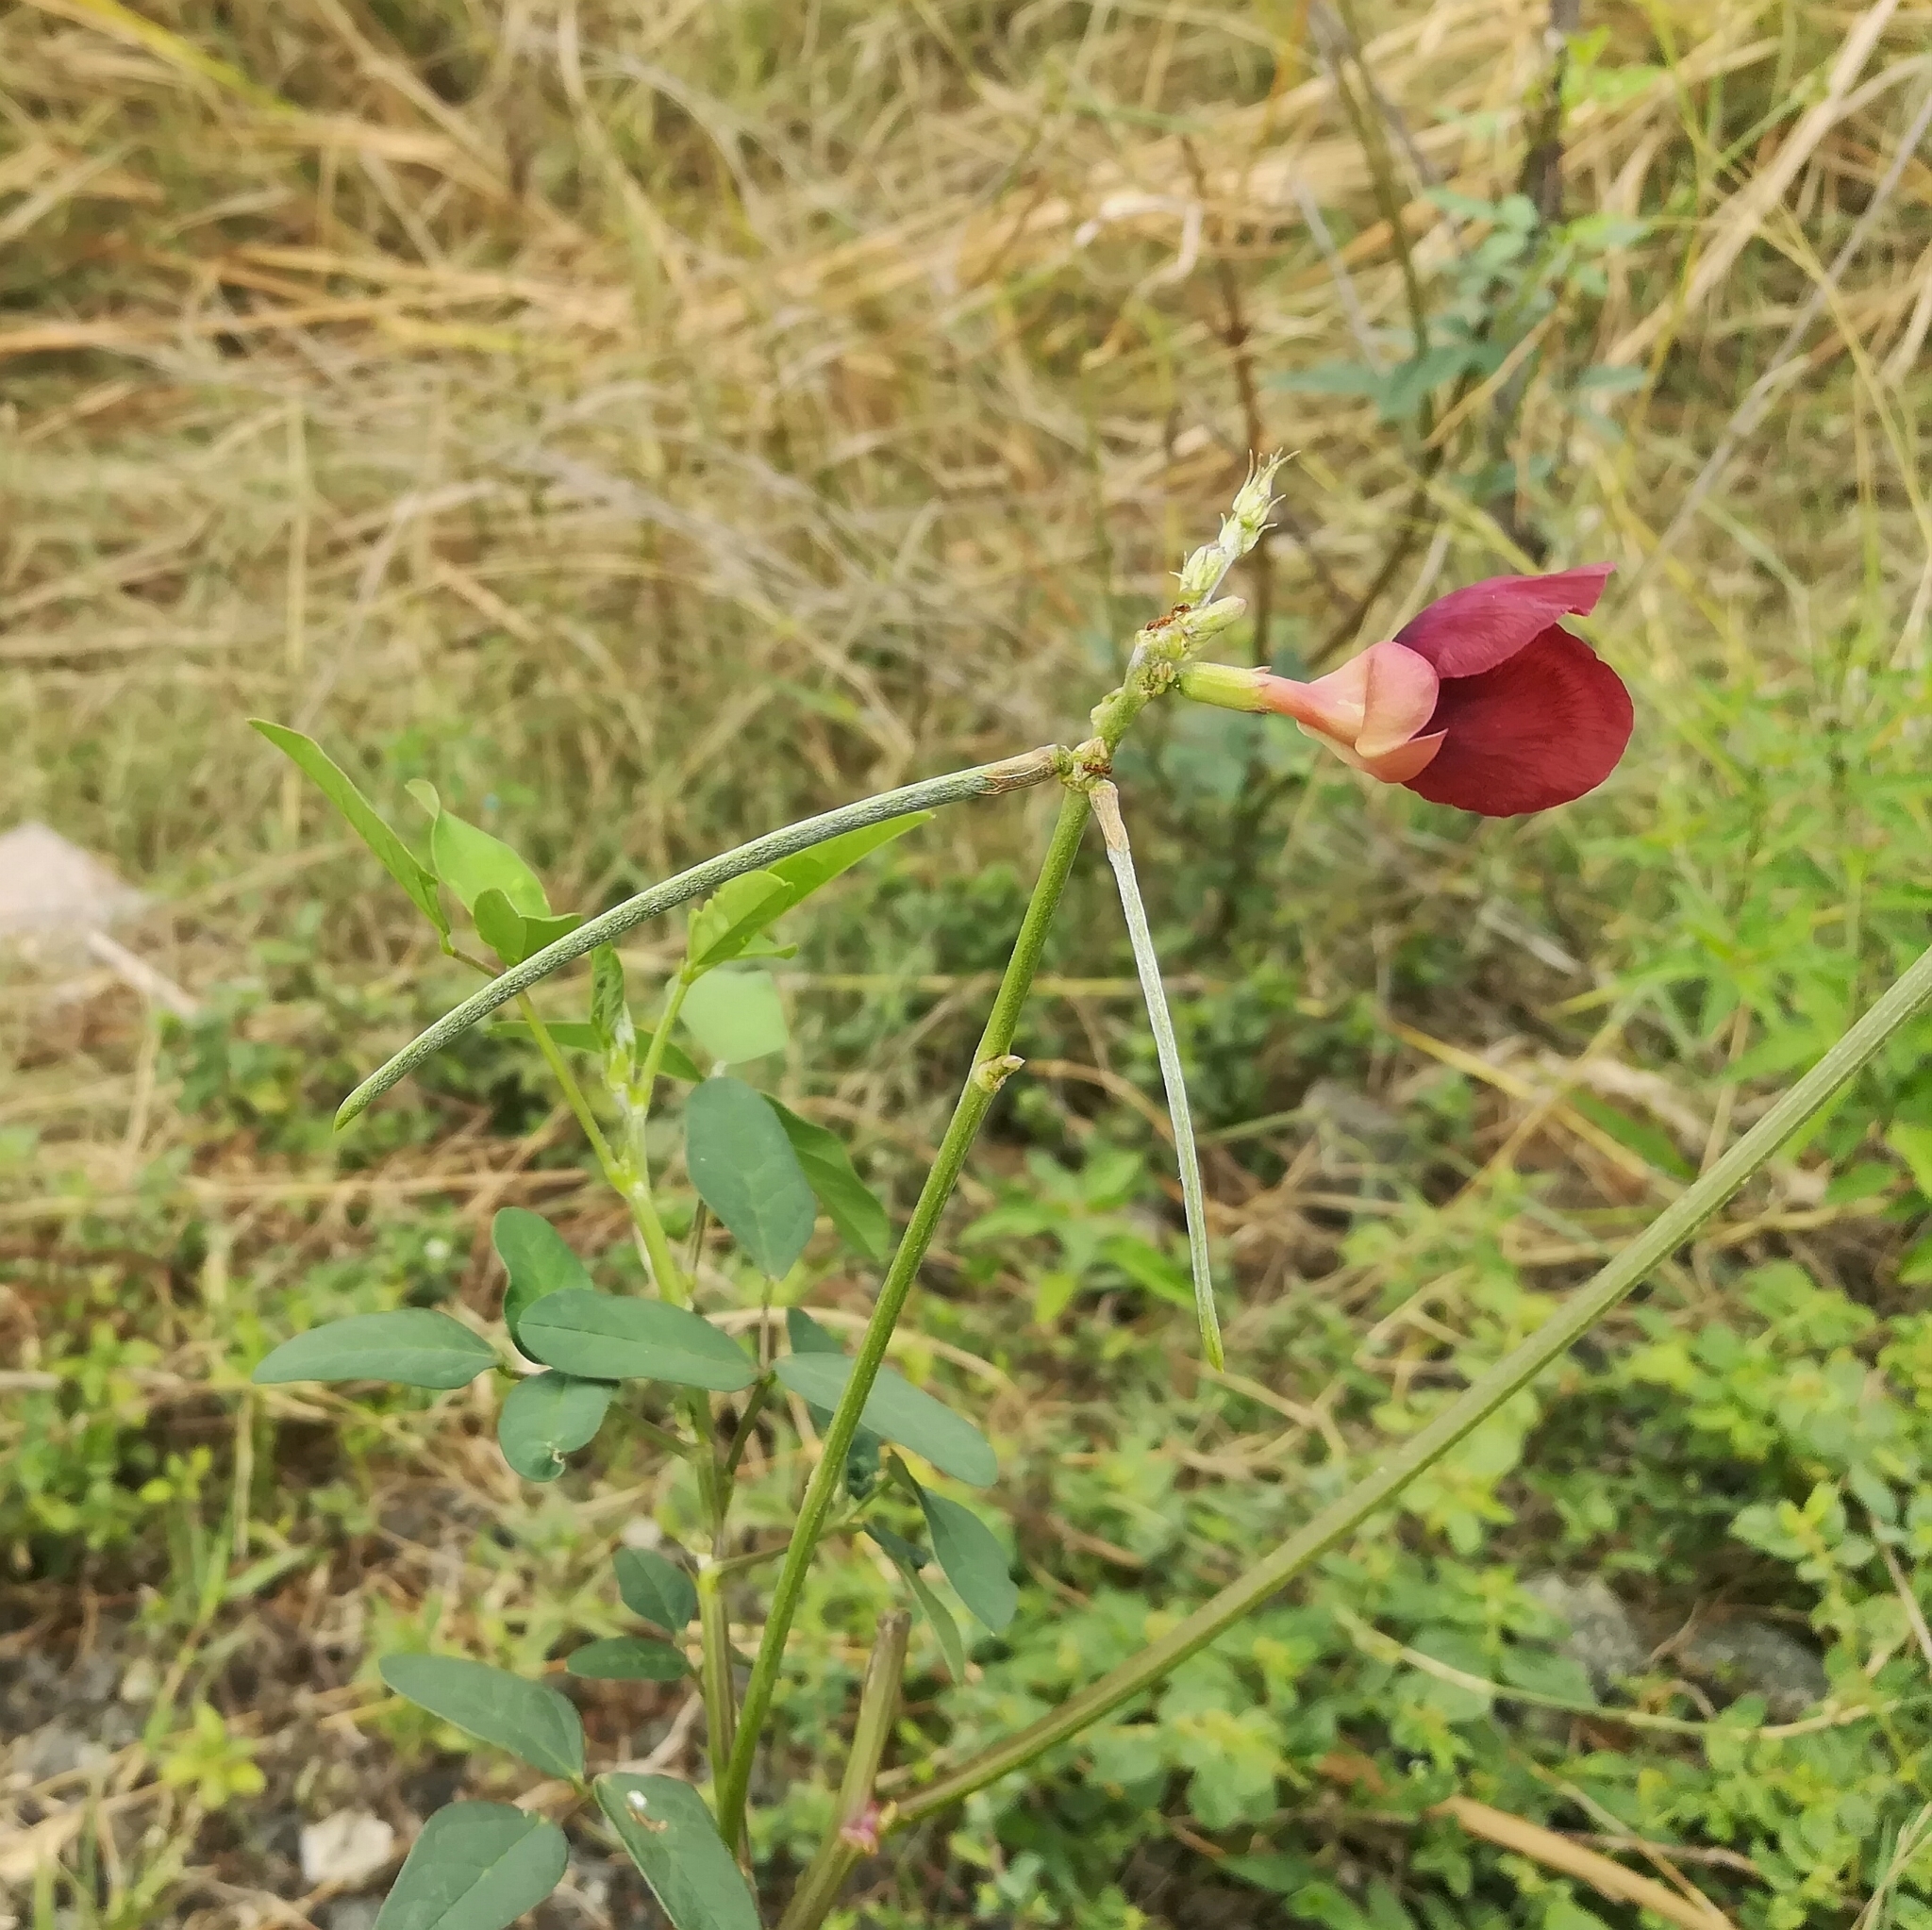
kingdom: Plantae
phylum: Tracheophyta
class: Magnoliopsida
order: Fabales
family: Fabaceae
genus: Macroptilium
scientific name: Macroptilium lathyroides
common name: Wild bushbean
